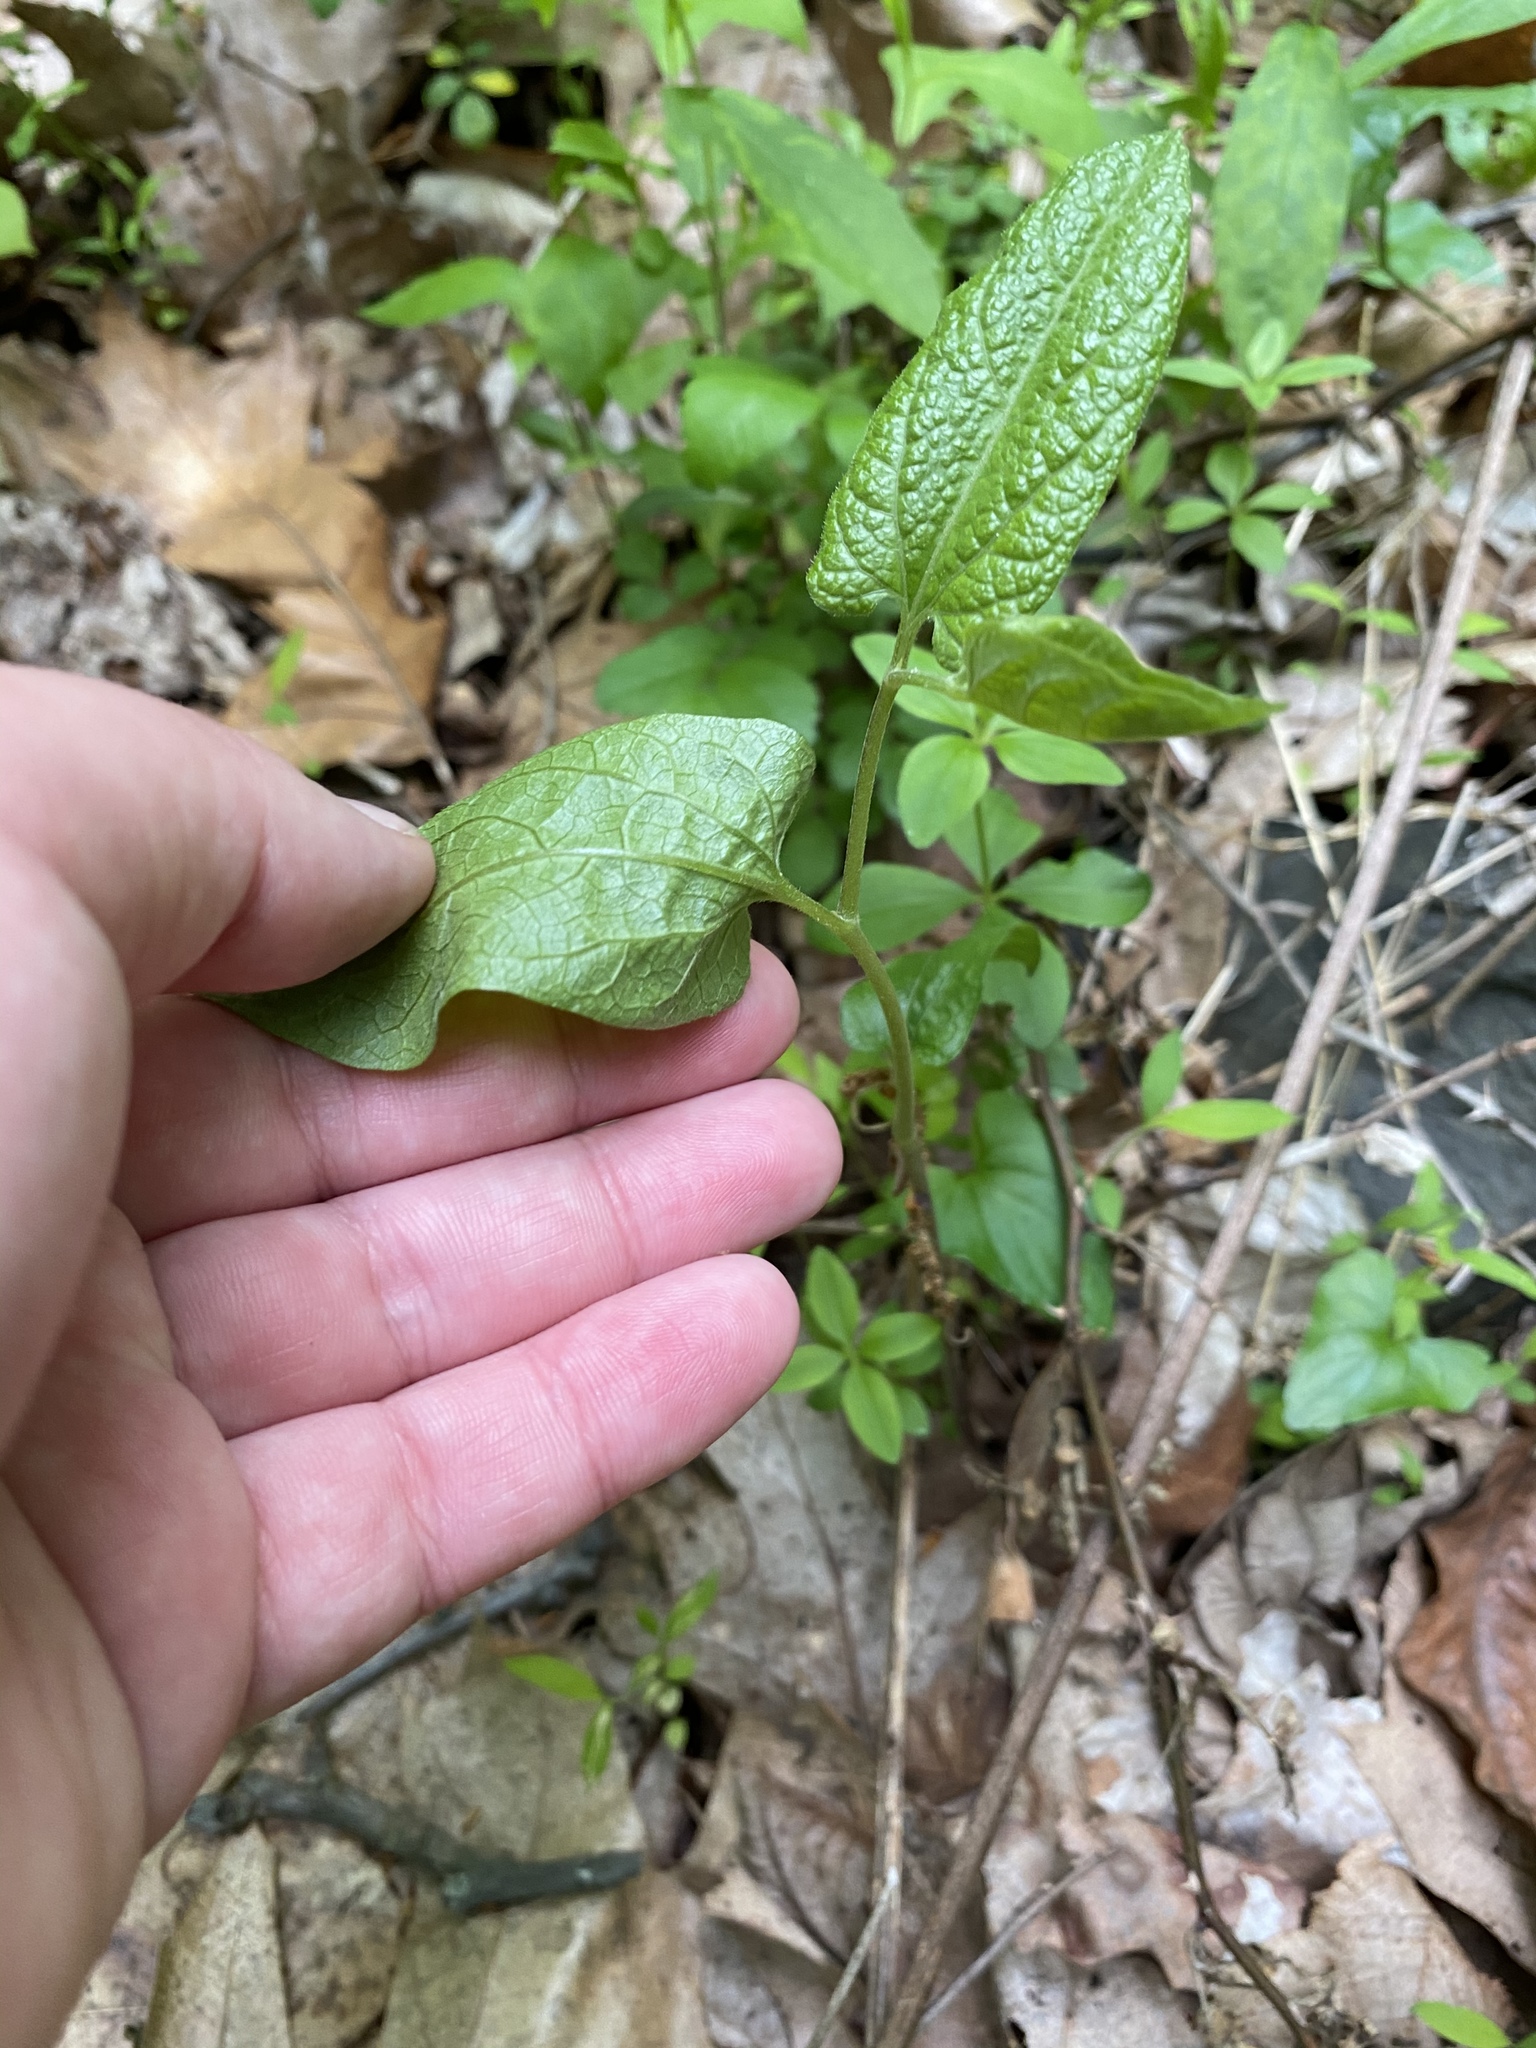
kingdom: Plantae
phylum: Tracheophyta
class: Magnoliopsida
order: Piperales
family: Aristolochiaceae
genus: Endodeca
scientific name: Endodeca serpentaria
